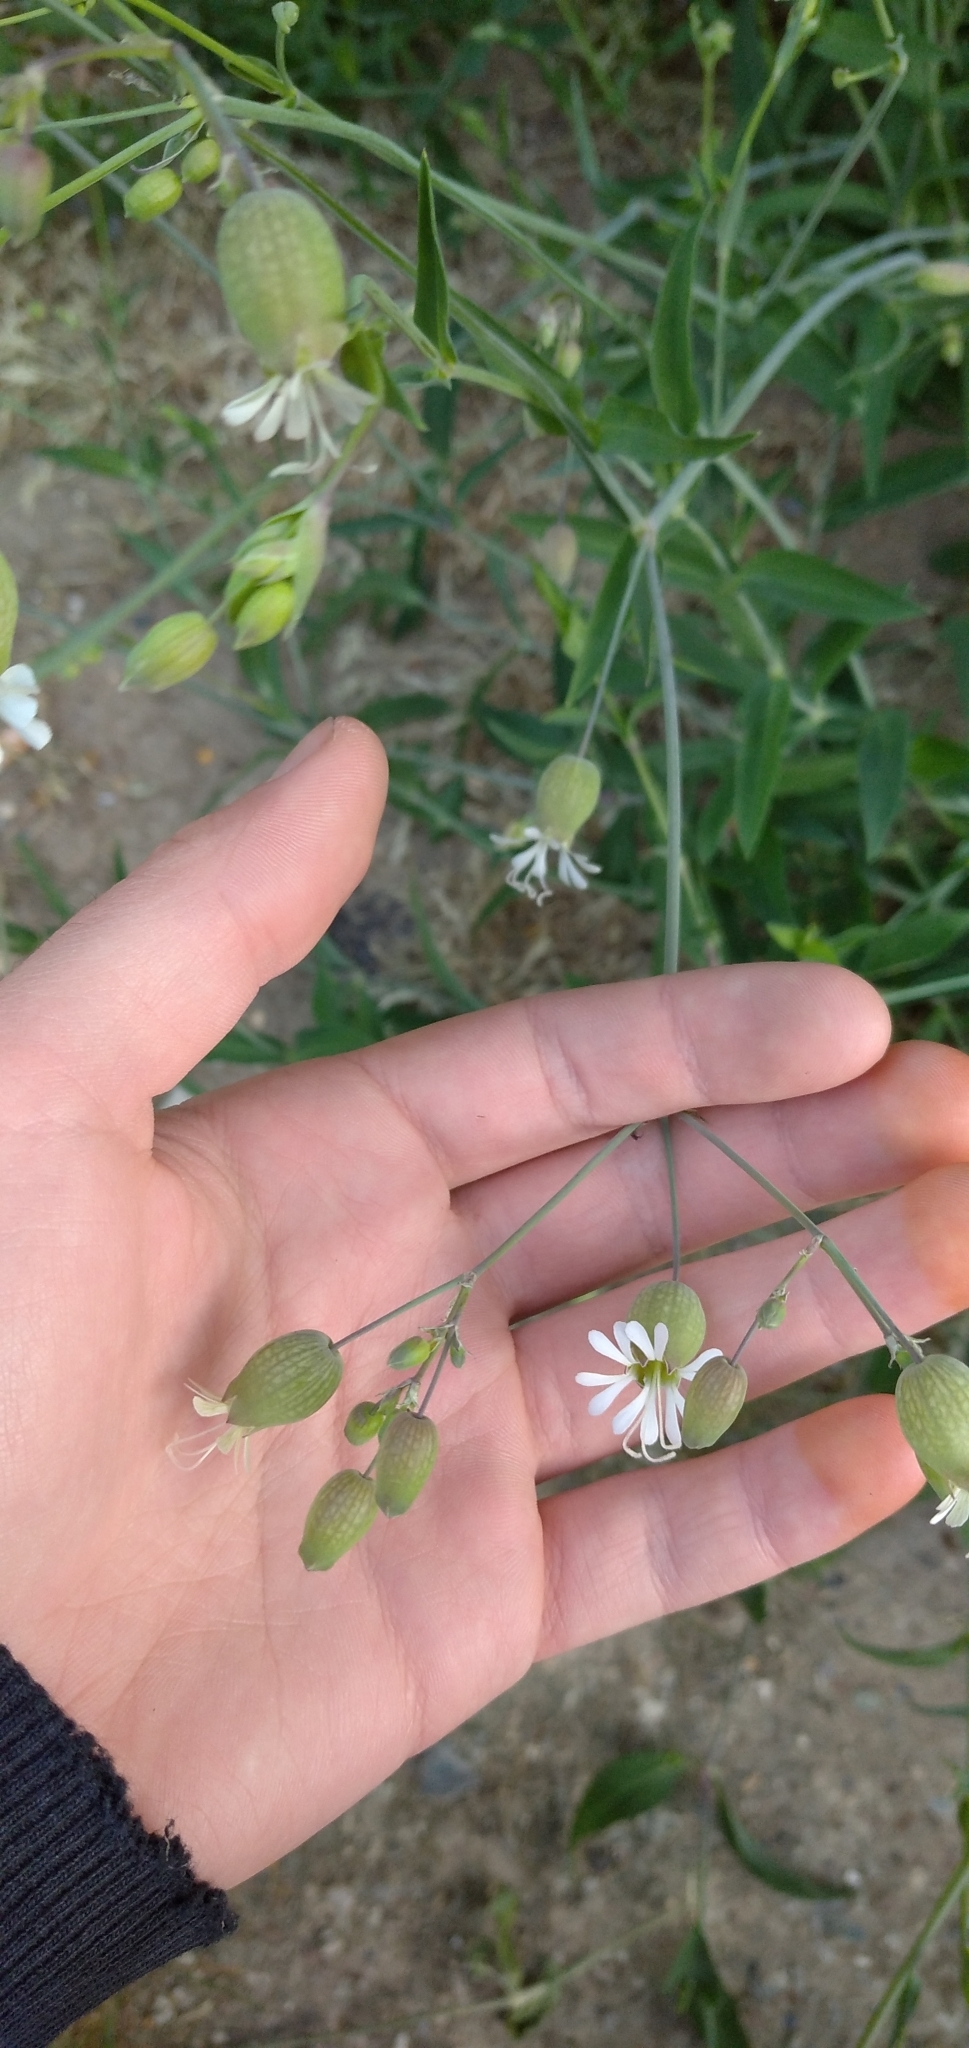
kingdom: Plantae
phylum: Tracheophyta
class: Magnoliopsida
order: Caryophyllales
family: Caryophyllaceae
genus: Silene
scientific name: Silene vulgaris
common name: Bladder campion
